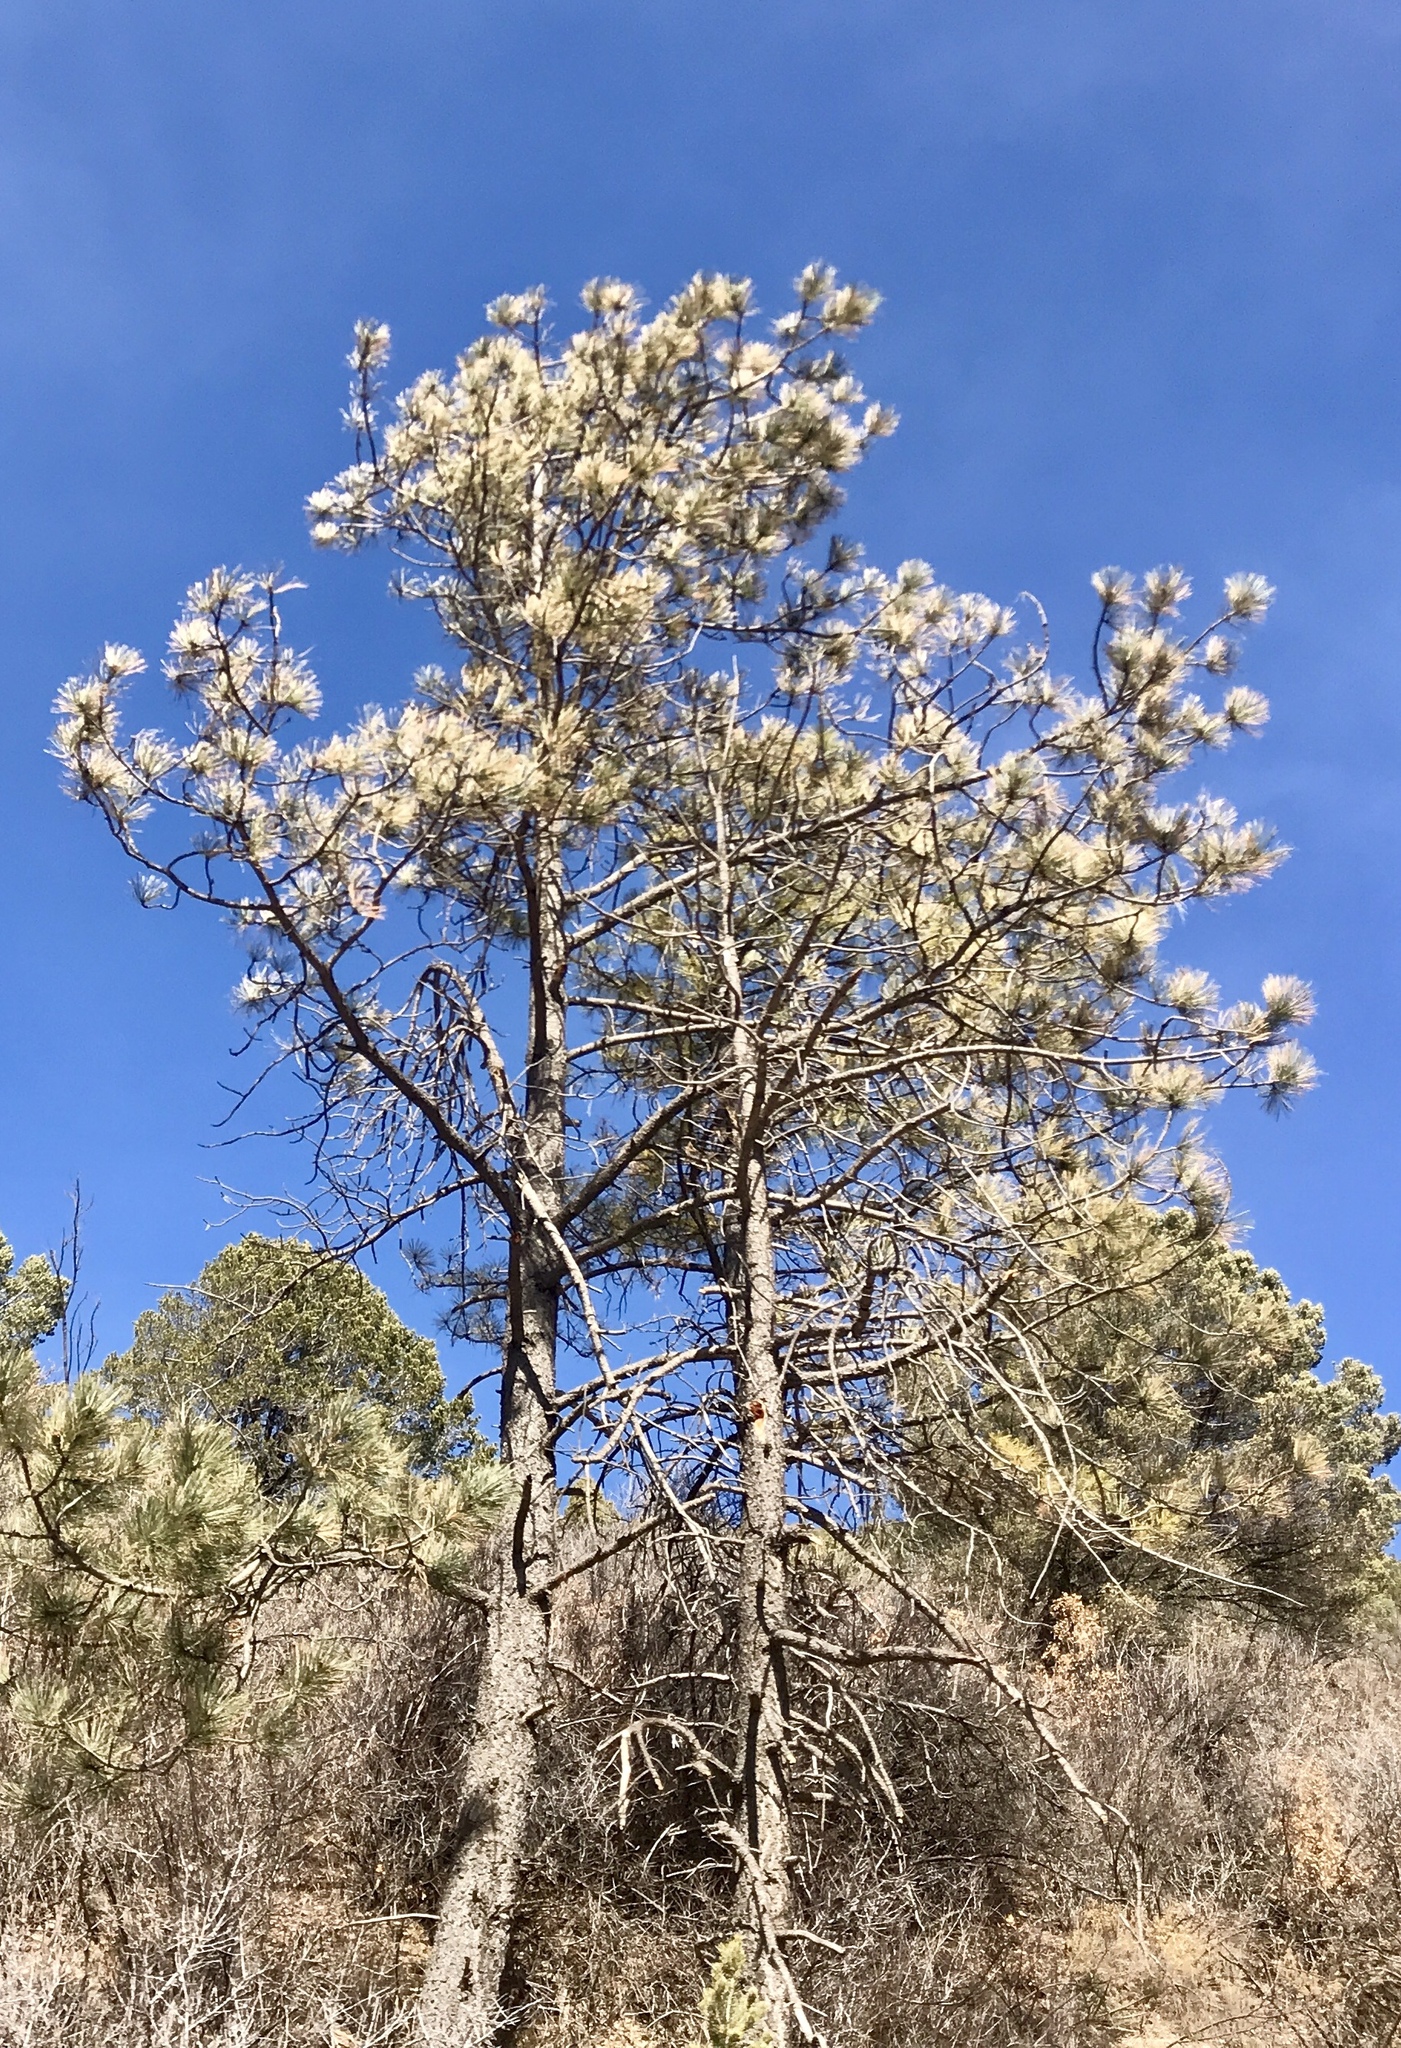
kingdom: Plantae
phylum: Tracheophyta
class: Pinopsida
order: Pinales
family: Pinaceae
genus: Pinus
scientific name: Pinus ponderosa
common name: Western yellow-pine
